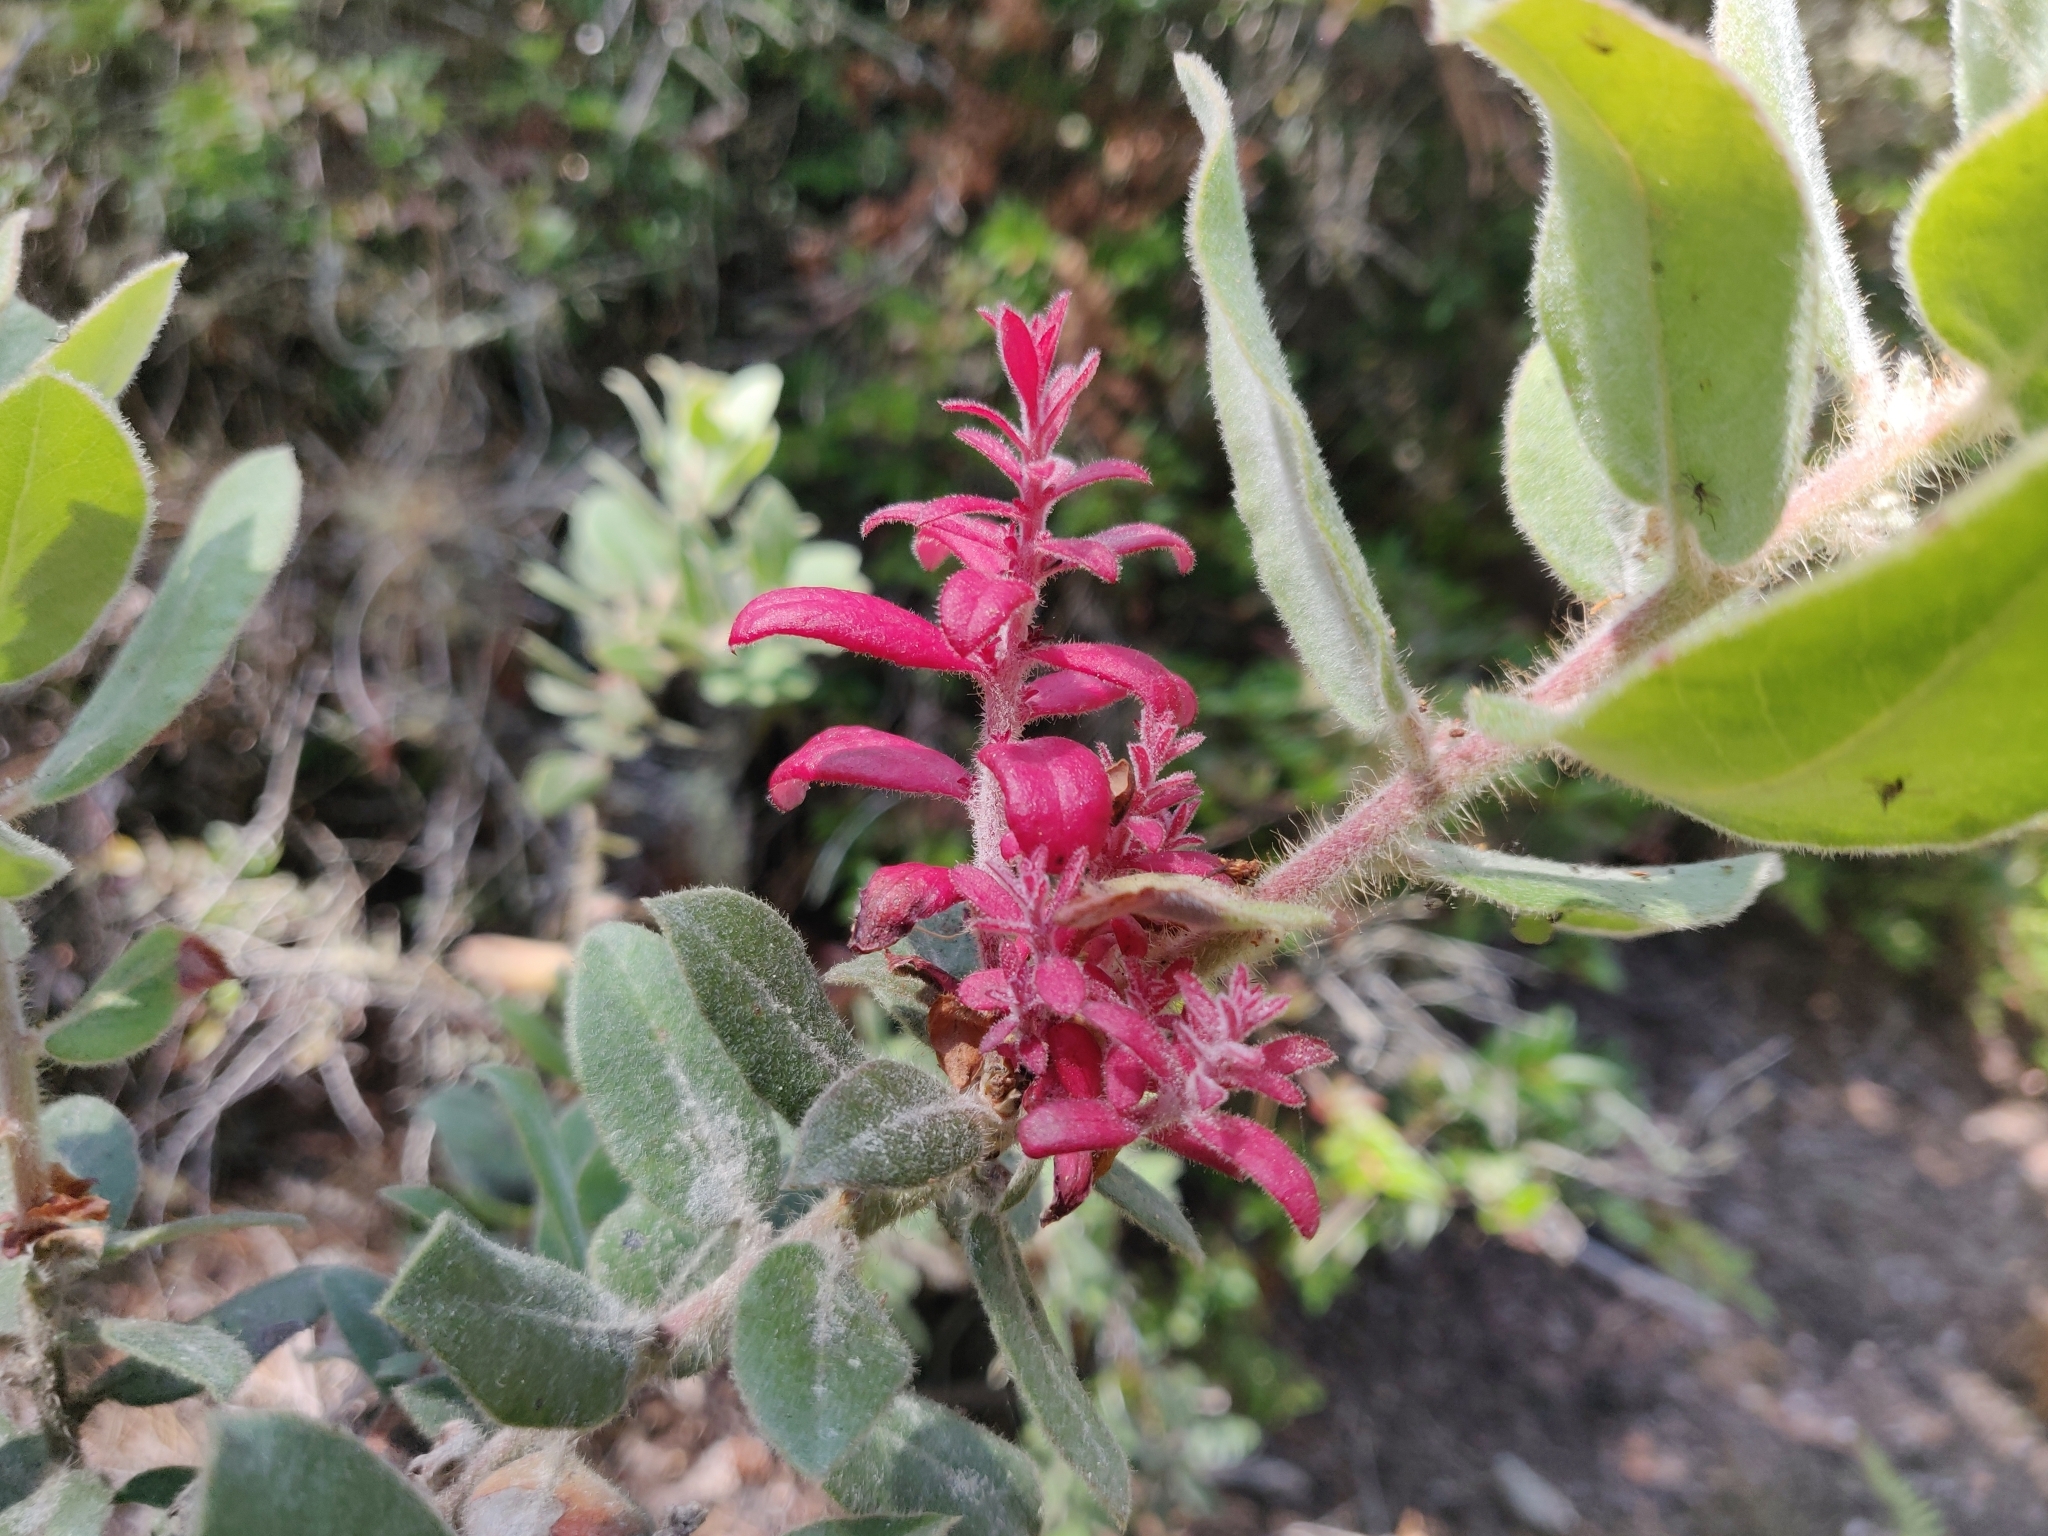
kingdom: Fungi
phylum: Basidiomycota
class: Exobasidiomycetes
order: Exobasidiales
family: Exobasidiaceae
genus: Exobasidium
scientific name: Exobasidium arctostaphyli
